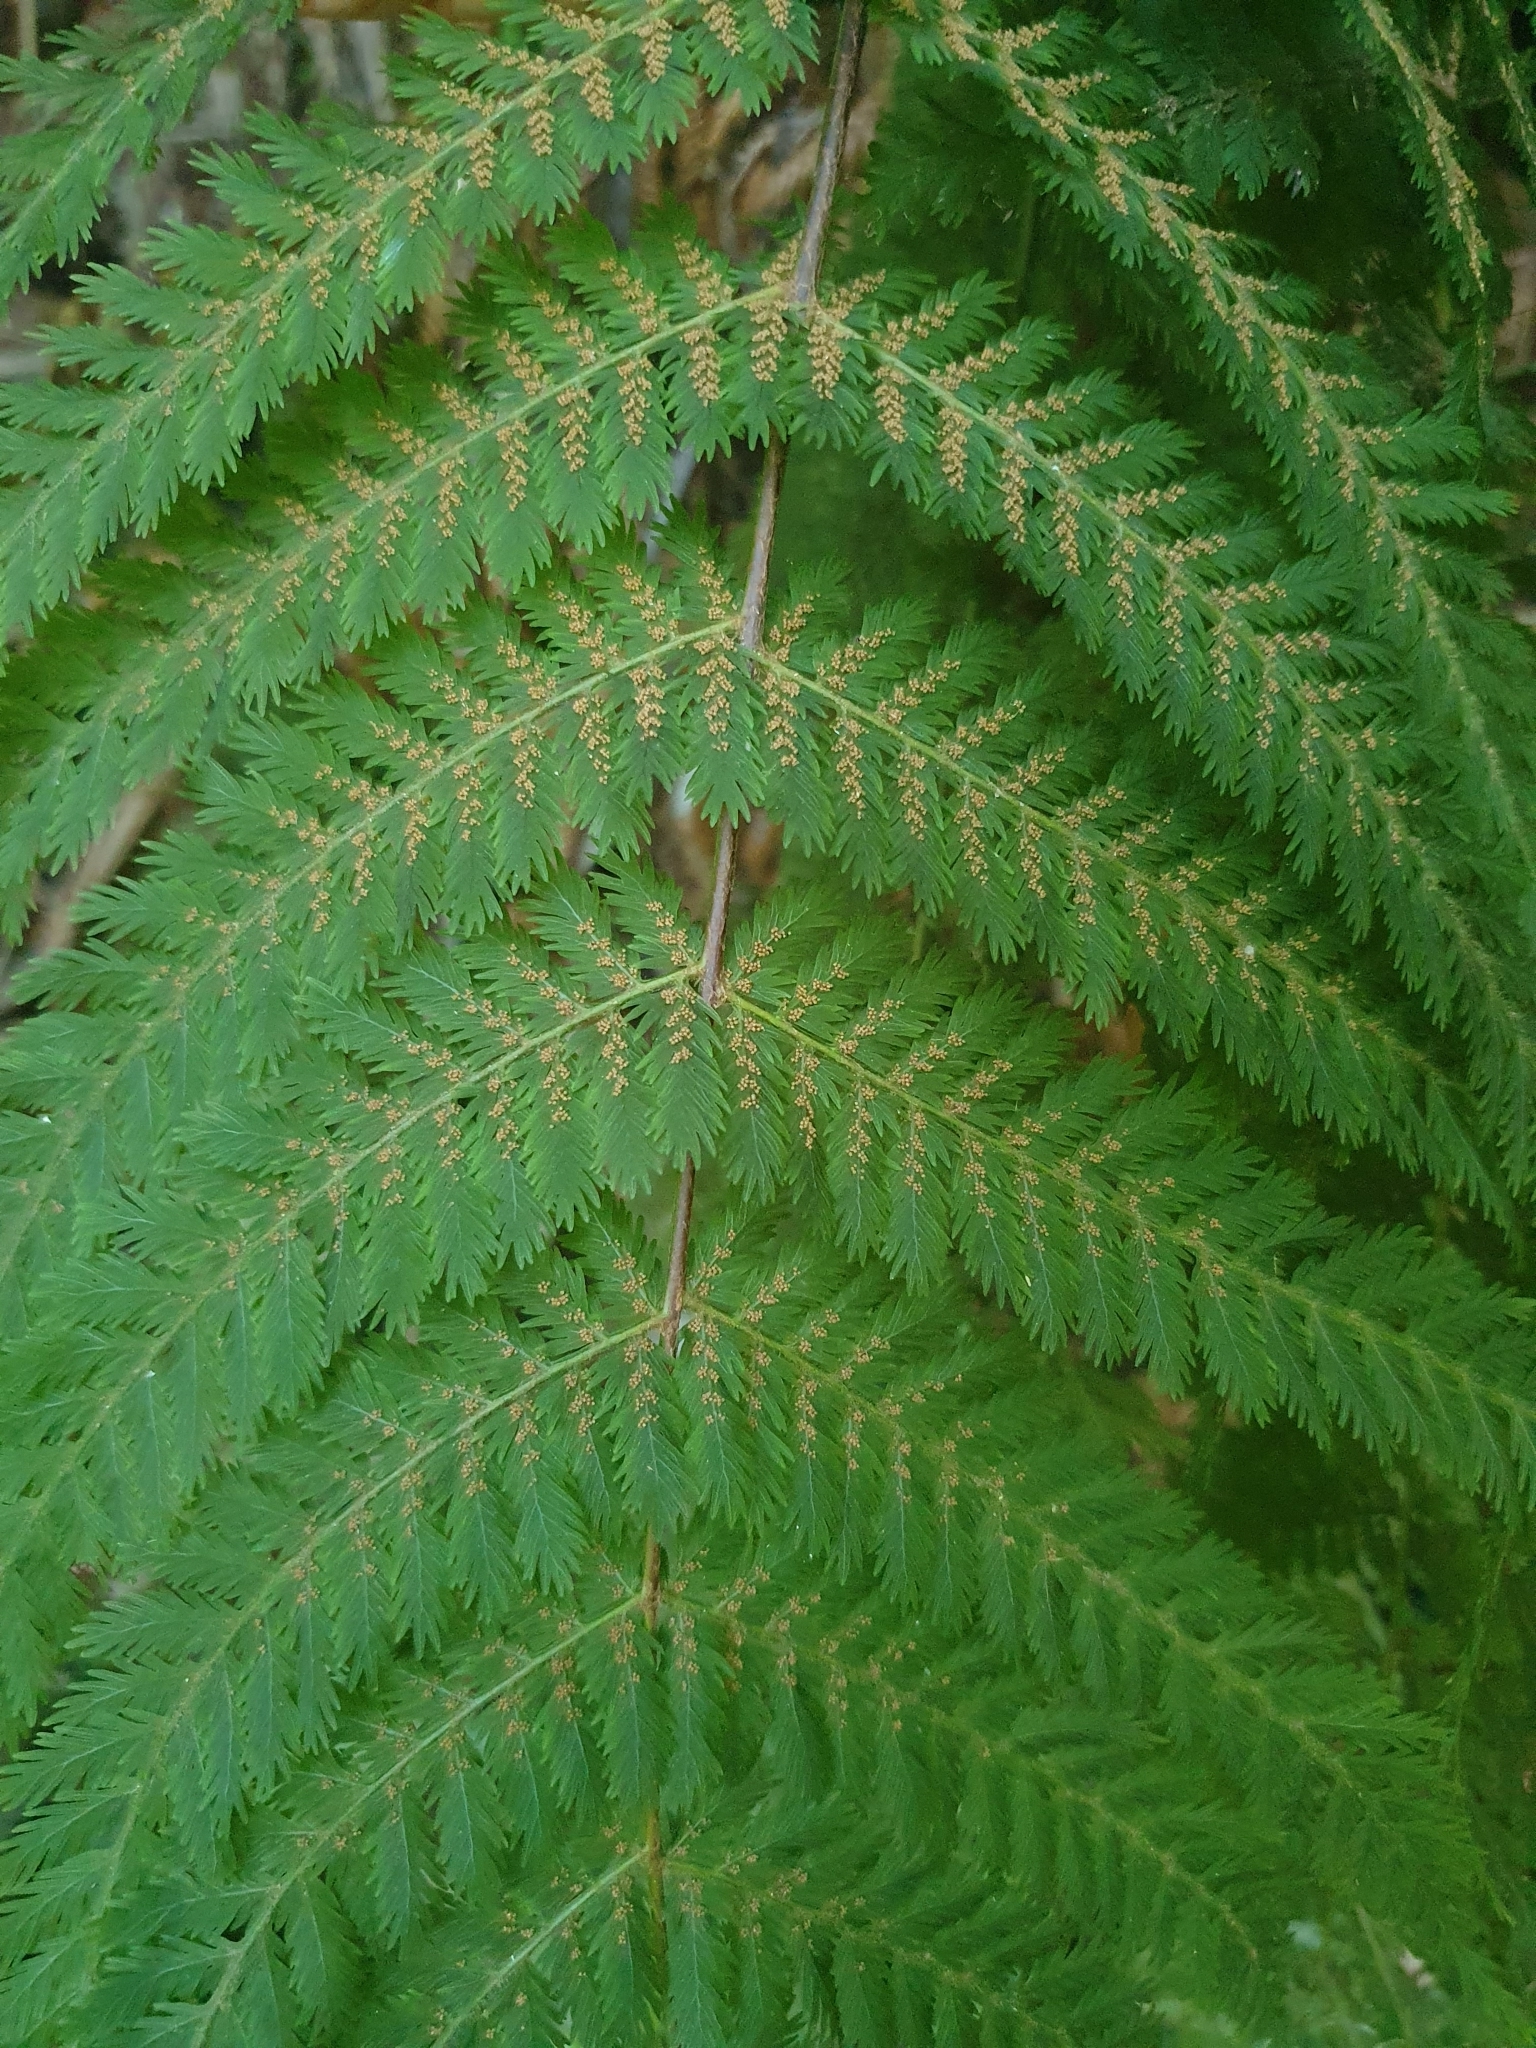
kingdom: Plantae
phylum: Tracheophyta
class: Polypodiopsida
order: Osmundales
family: Osmundaceae
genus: Leptopteris
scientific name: Leptopteris hymenophylloides
